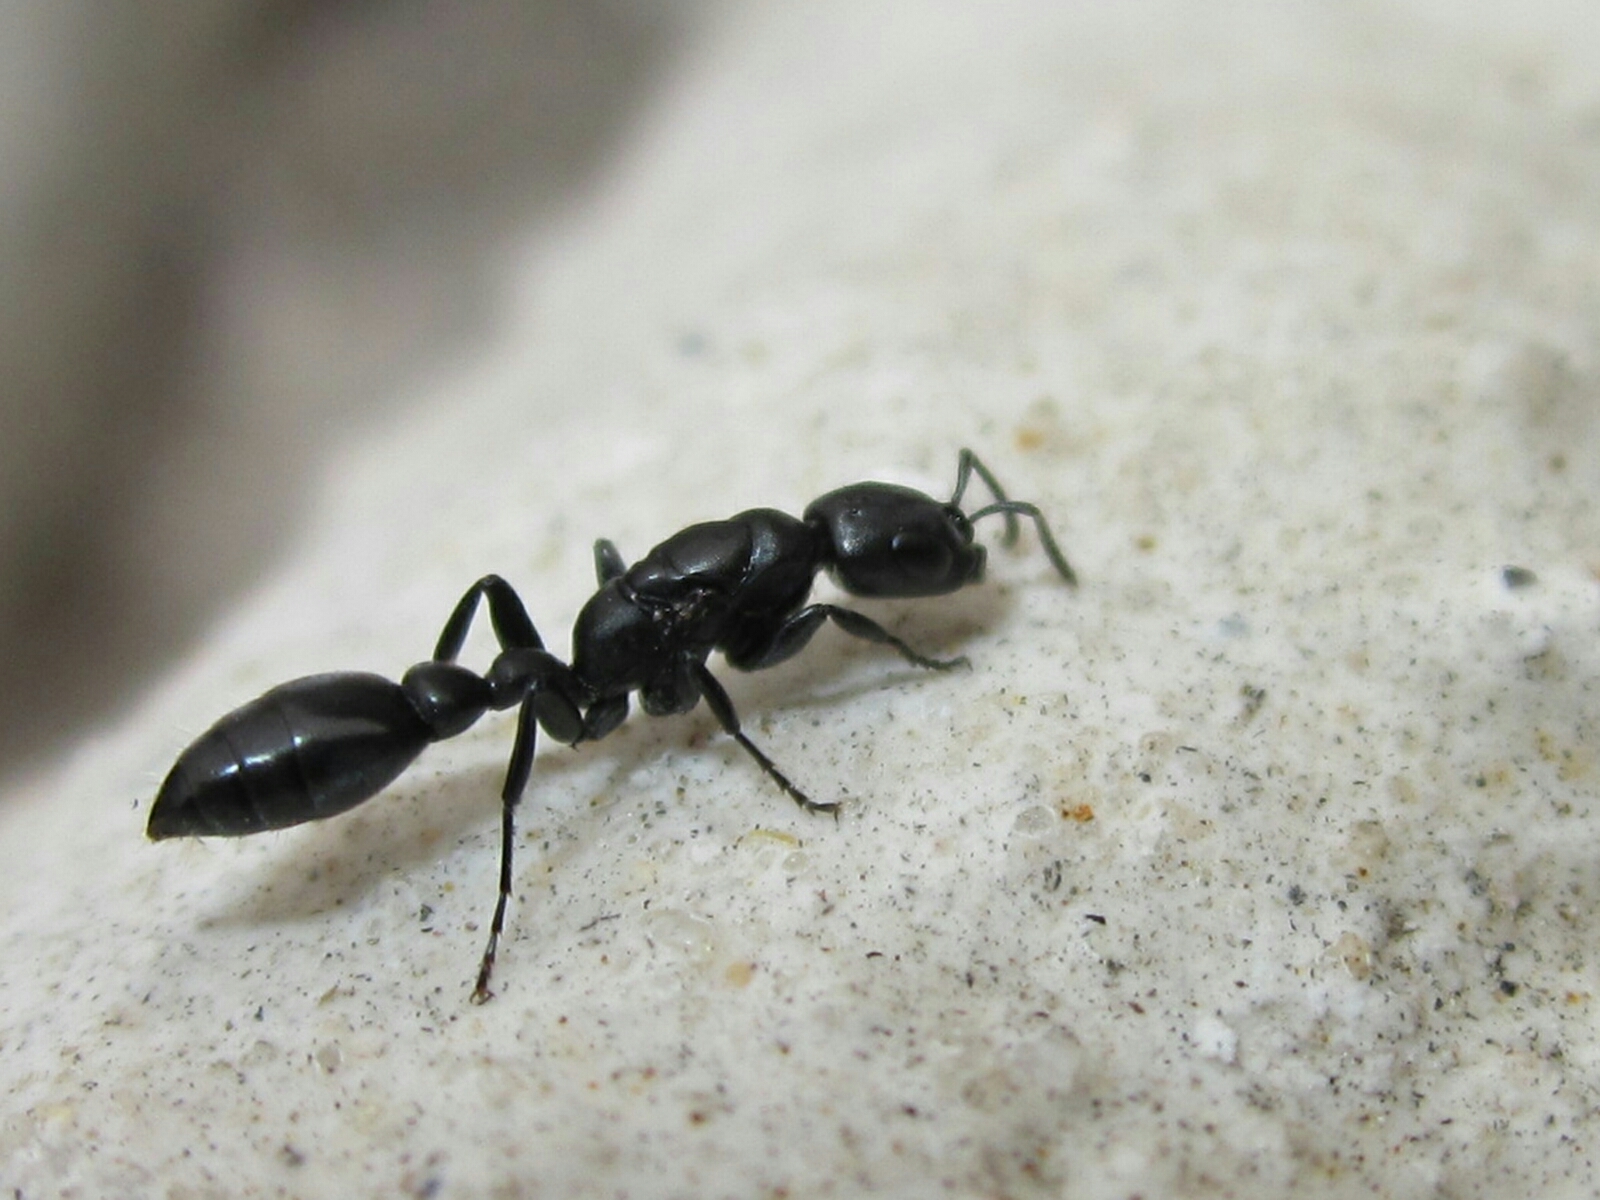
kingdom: Animalia
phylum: Arthropoda
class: Insecta
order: Hymenoptera
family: Formicidae
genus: Pseudomyrmex
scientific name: Pseudomyrmex lynceus
